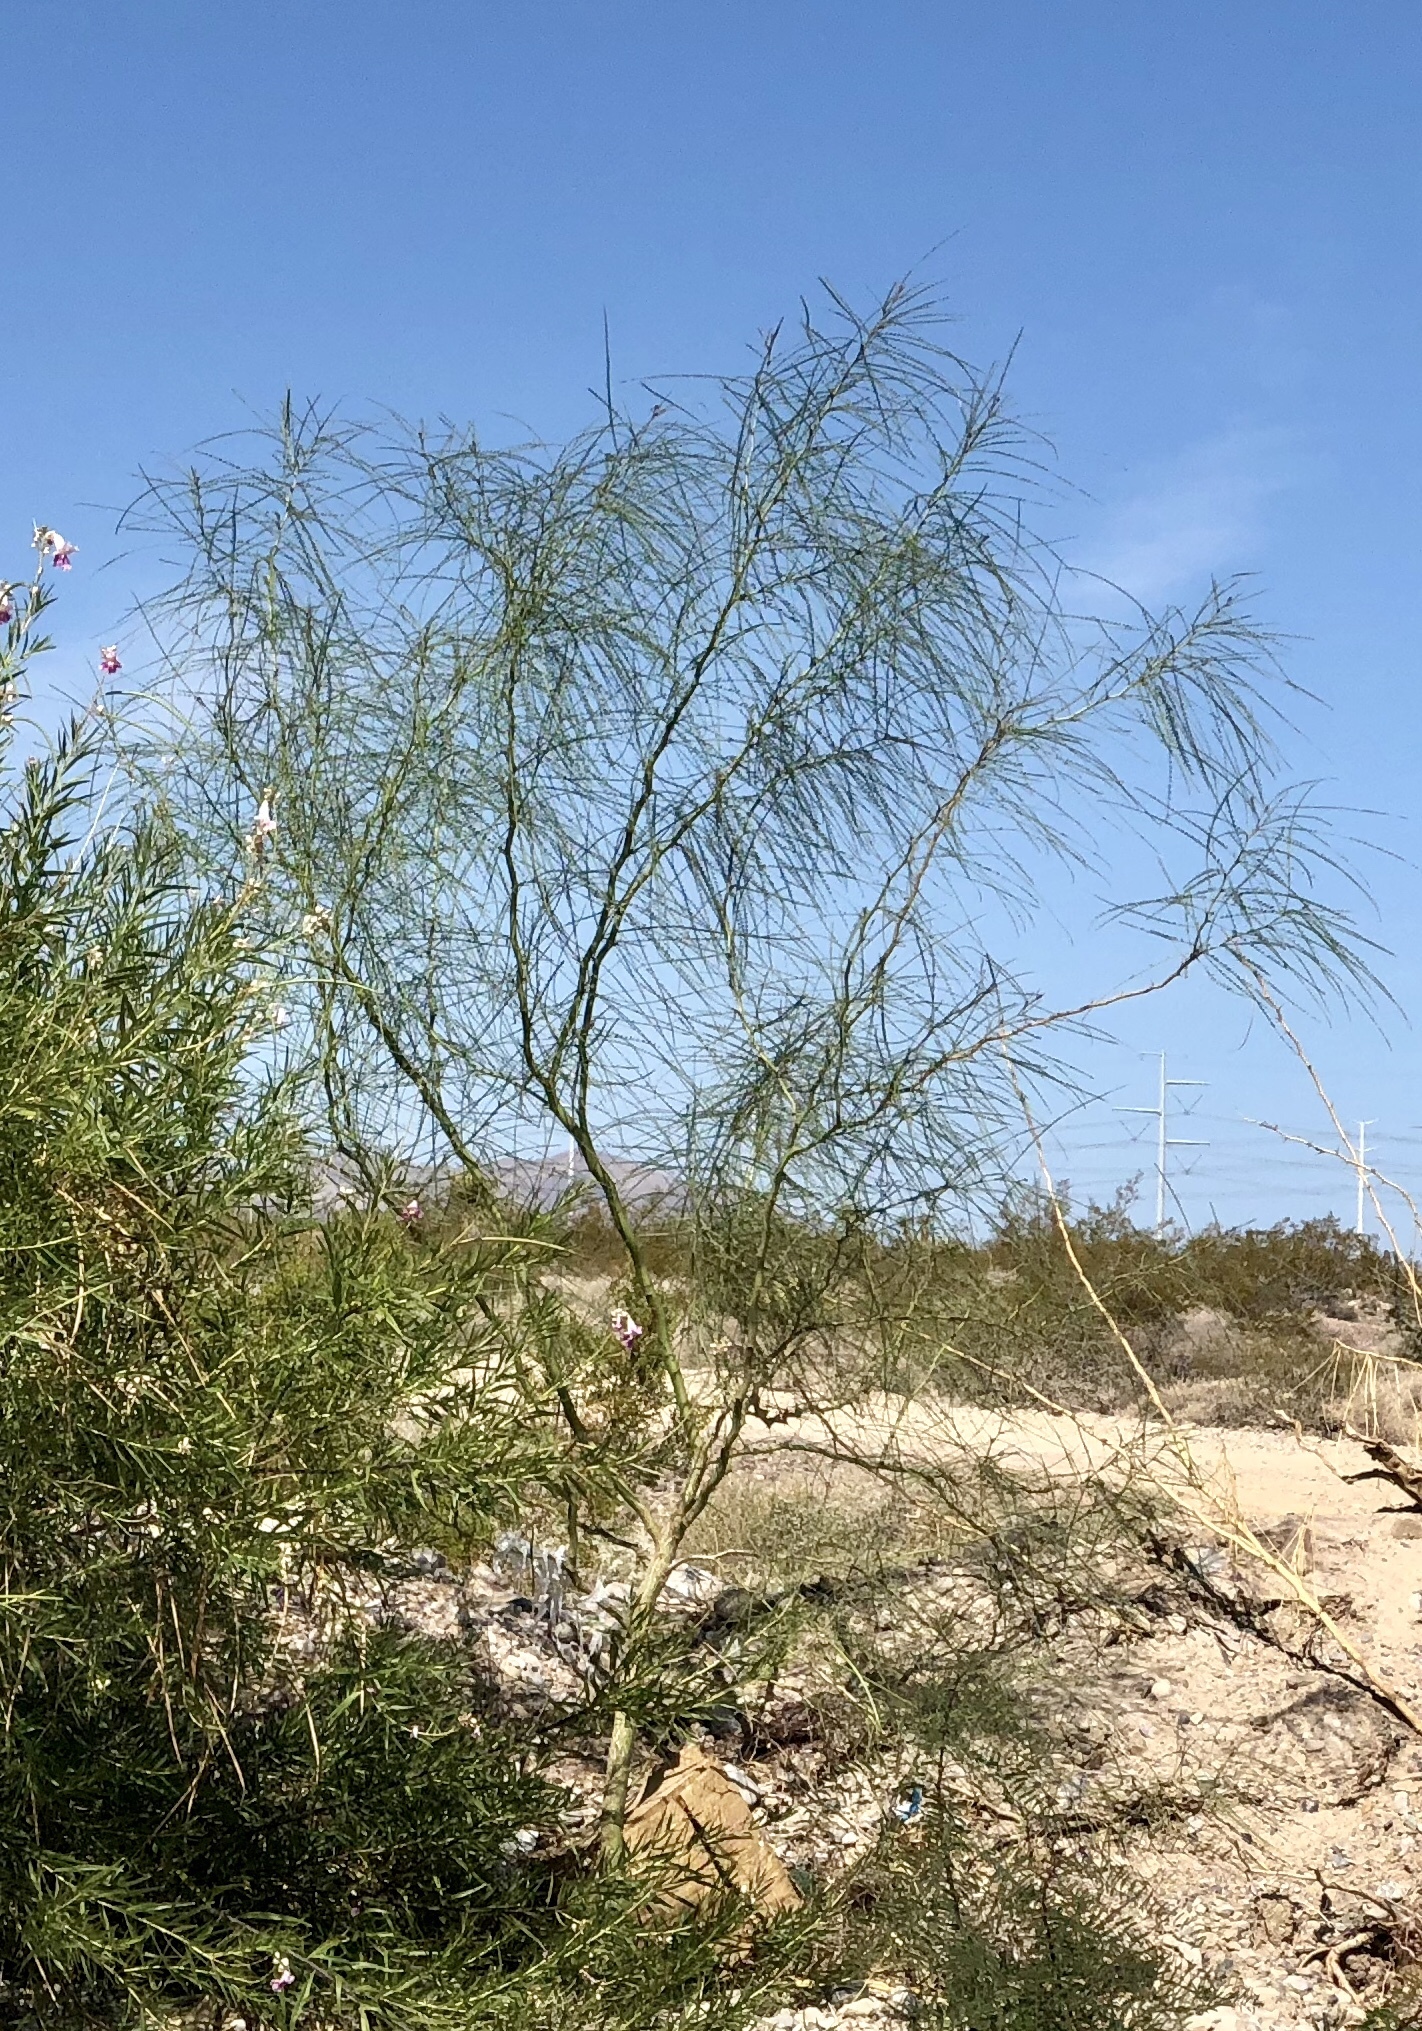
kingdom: Plantae
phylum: Tracheophyta
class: Magnoliopsida
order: Fabales
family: Fabaceae
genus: Parkinsonia
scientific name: Parkinsonia aculeata
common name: Jerusalem thorn
